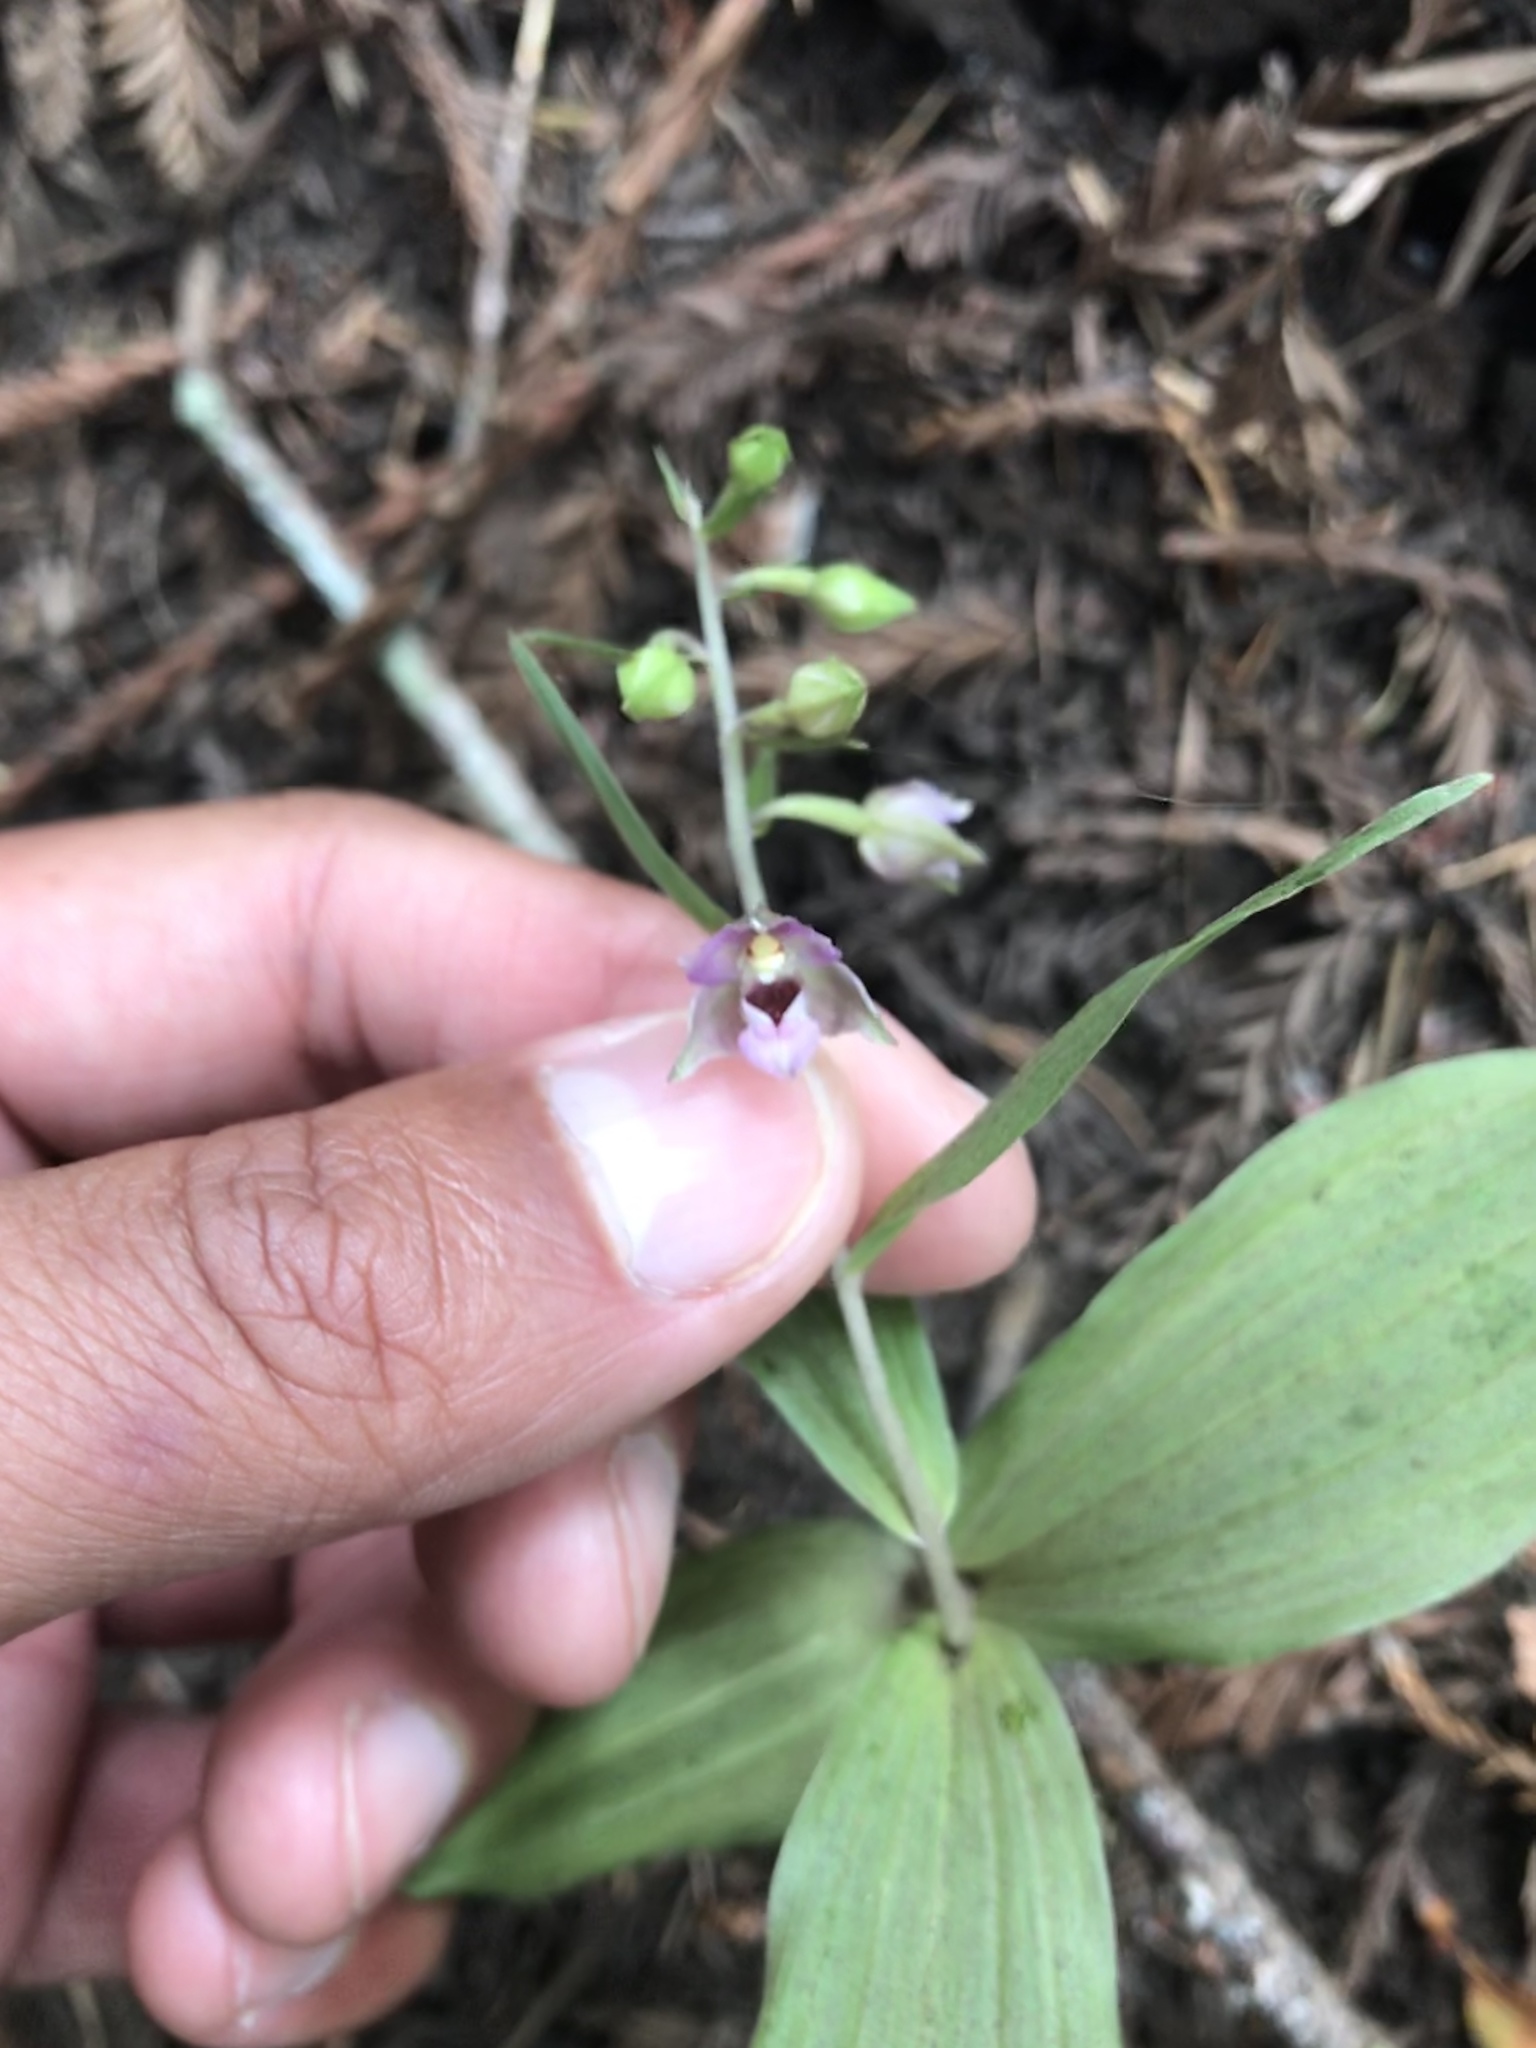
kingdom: Plantae
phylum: Tracheophyta
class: Liliopsida
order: Asparagales
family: Orchidaceae
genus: Epipactis
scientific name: Epipactis helleborine
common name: Broad-leaved helleborine
